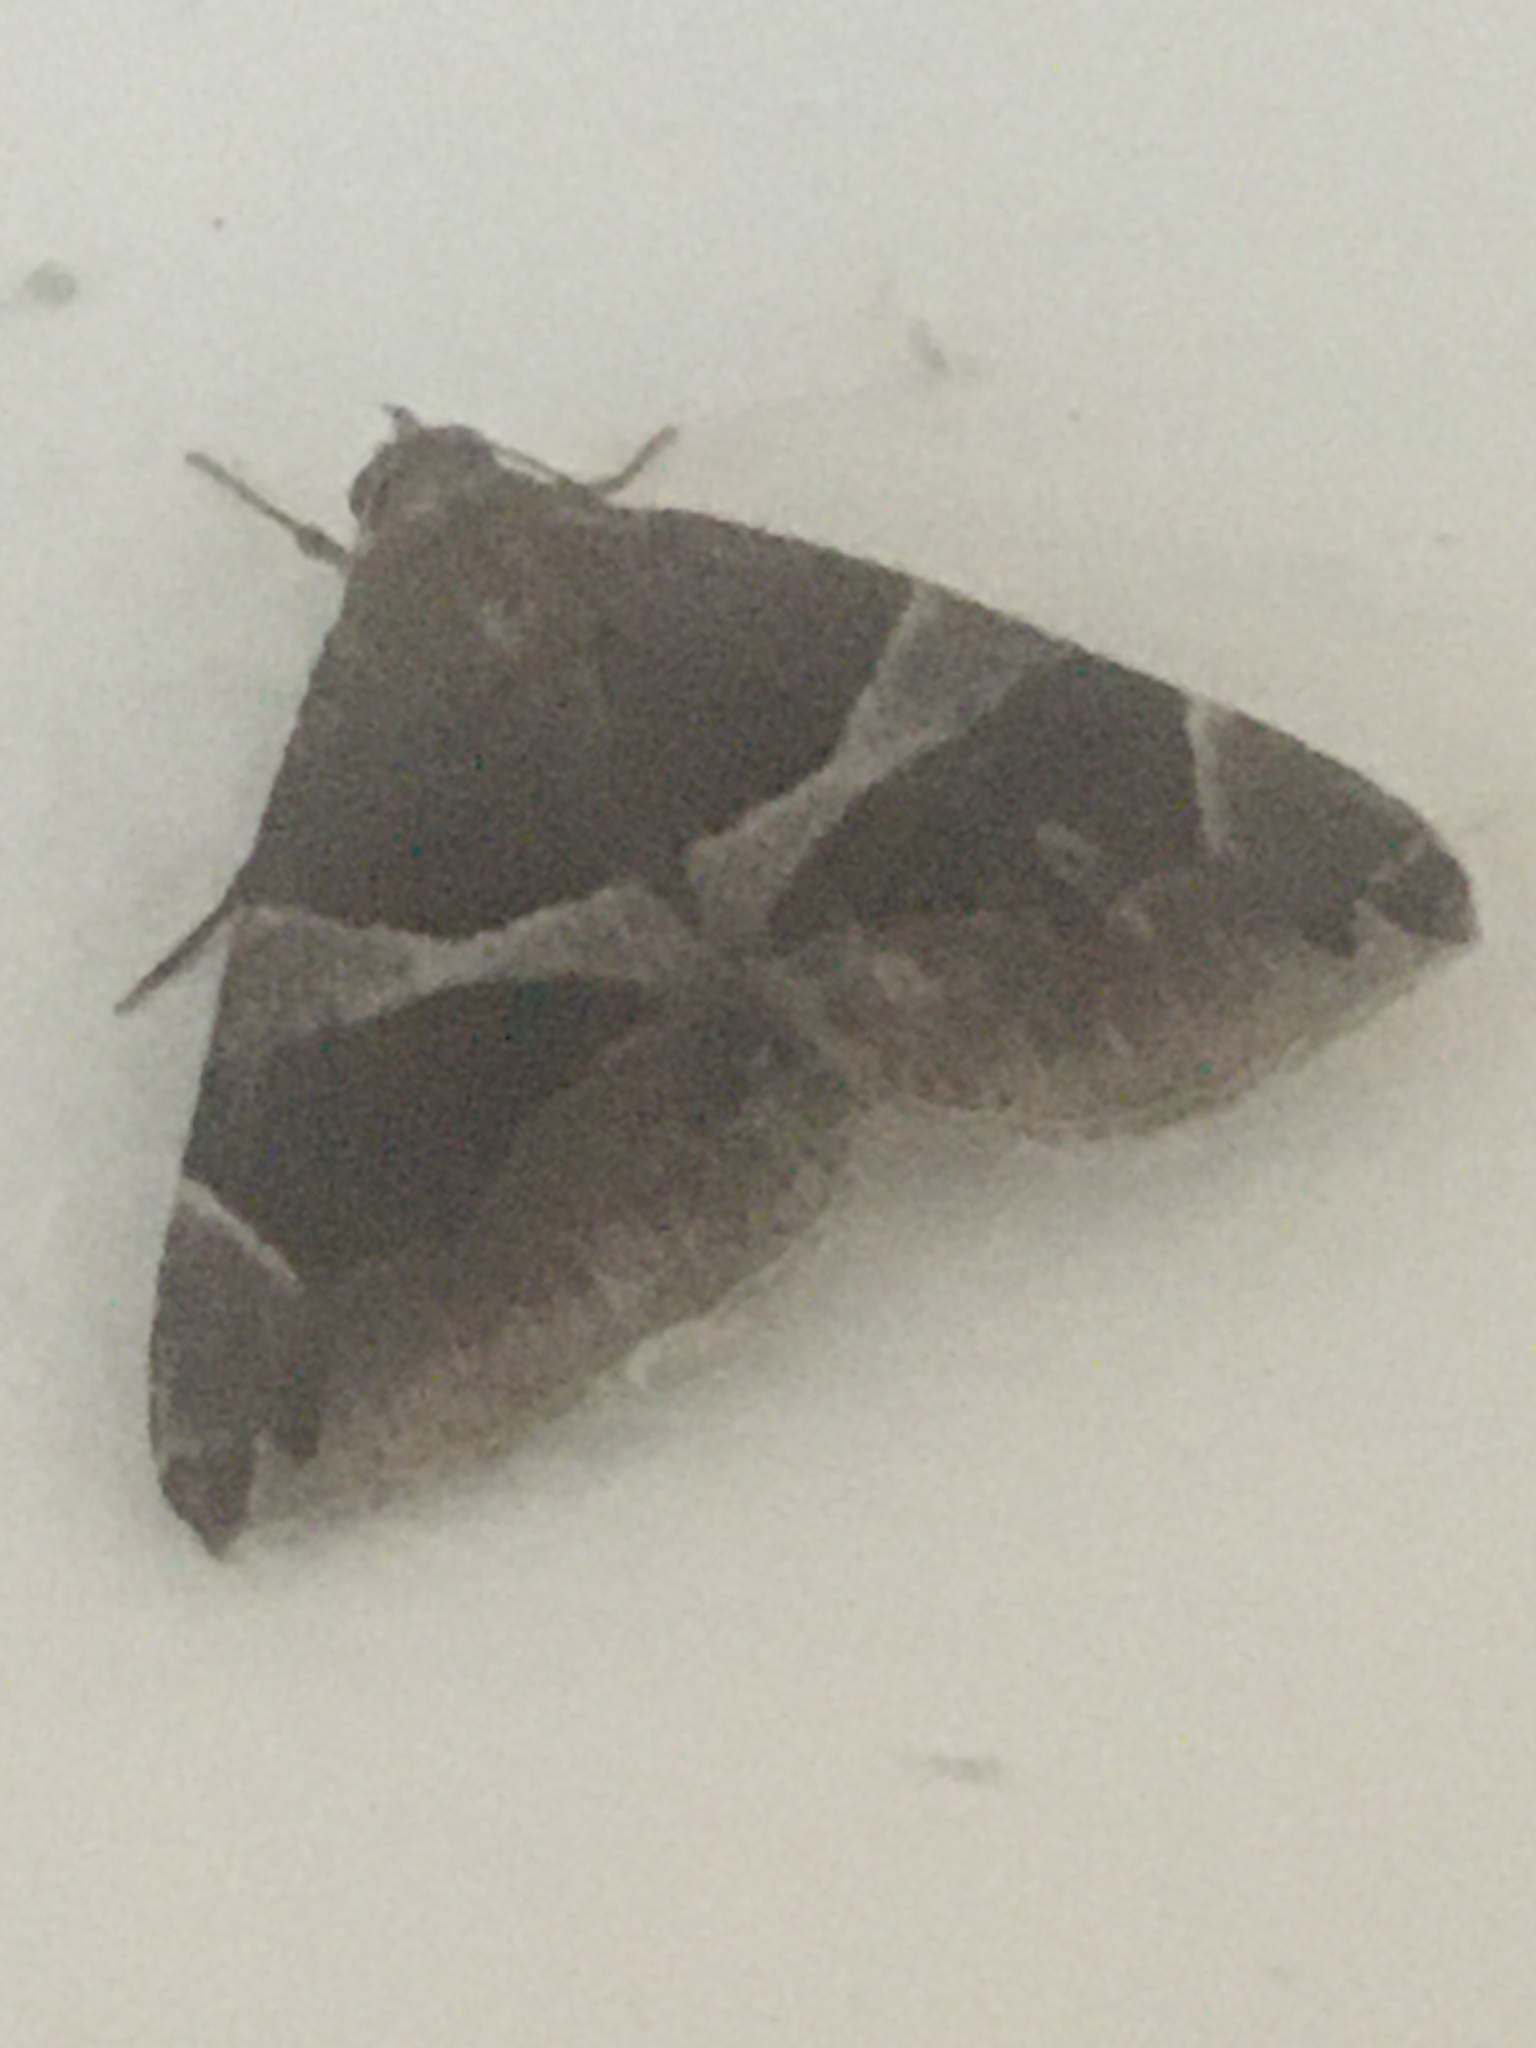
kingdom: Animalia
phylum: Arthropoda
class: Insecta
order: Lepidoptera
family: Erebidae
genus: Dysgonia
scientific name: Dysgonia algira
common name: Passenger
